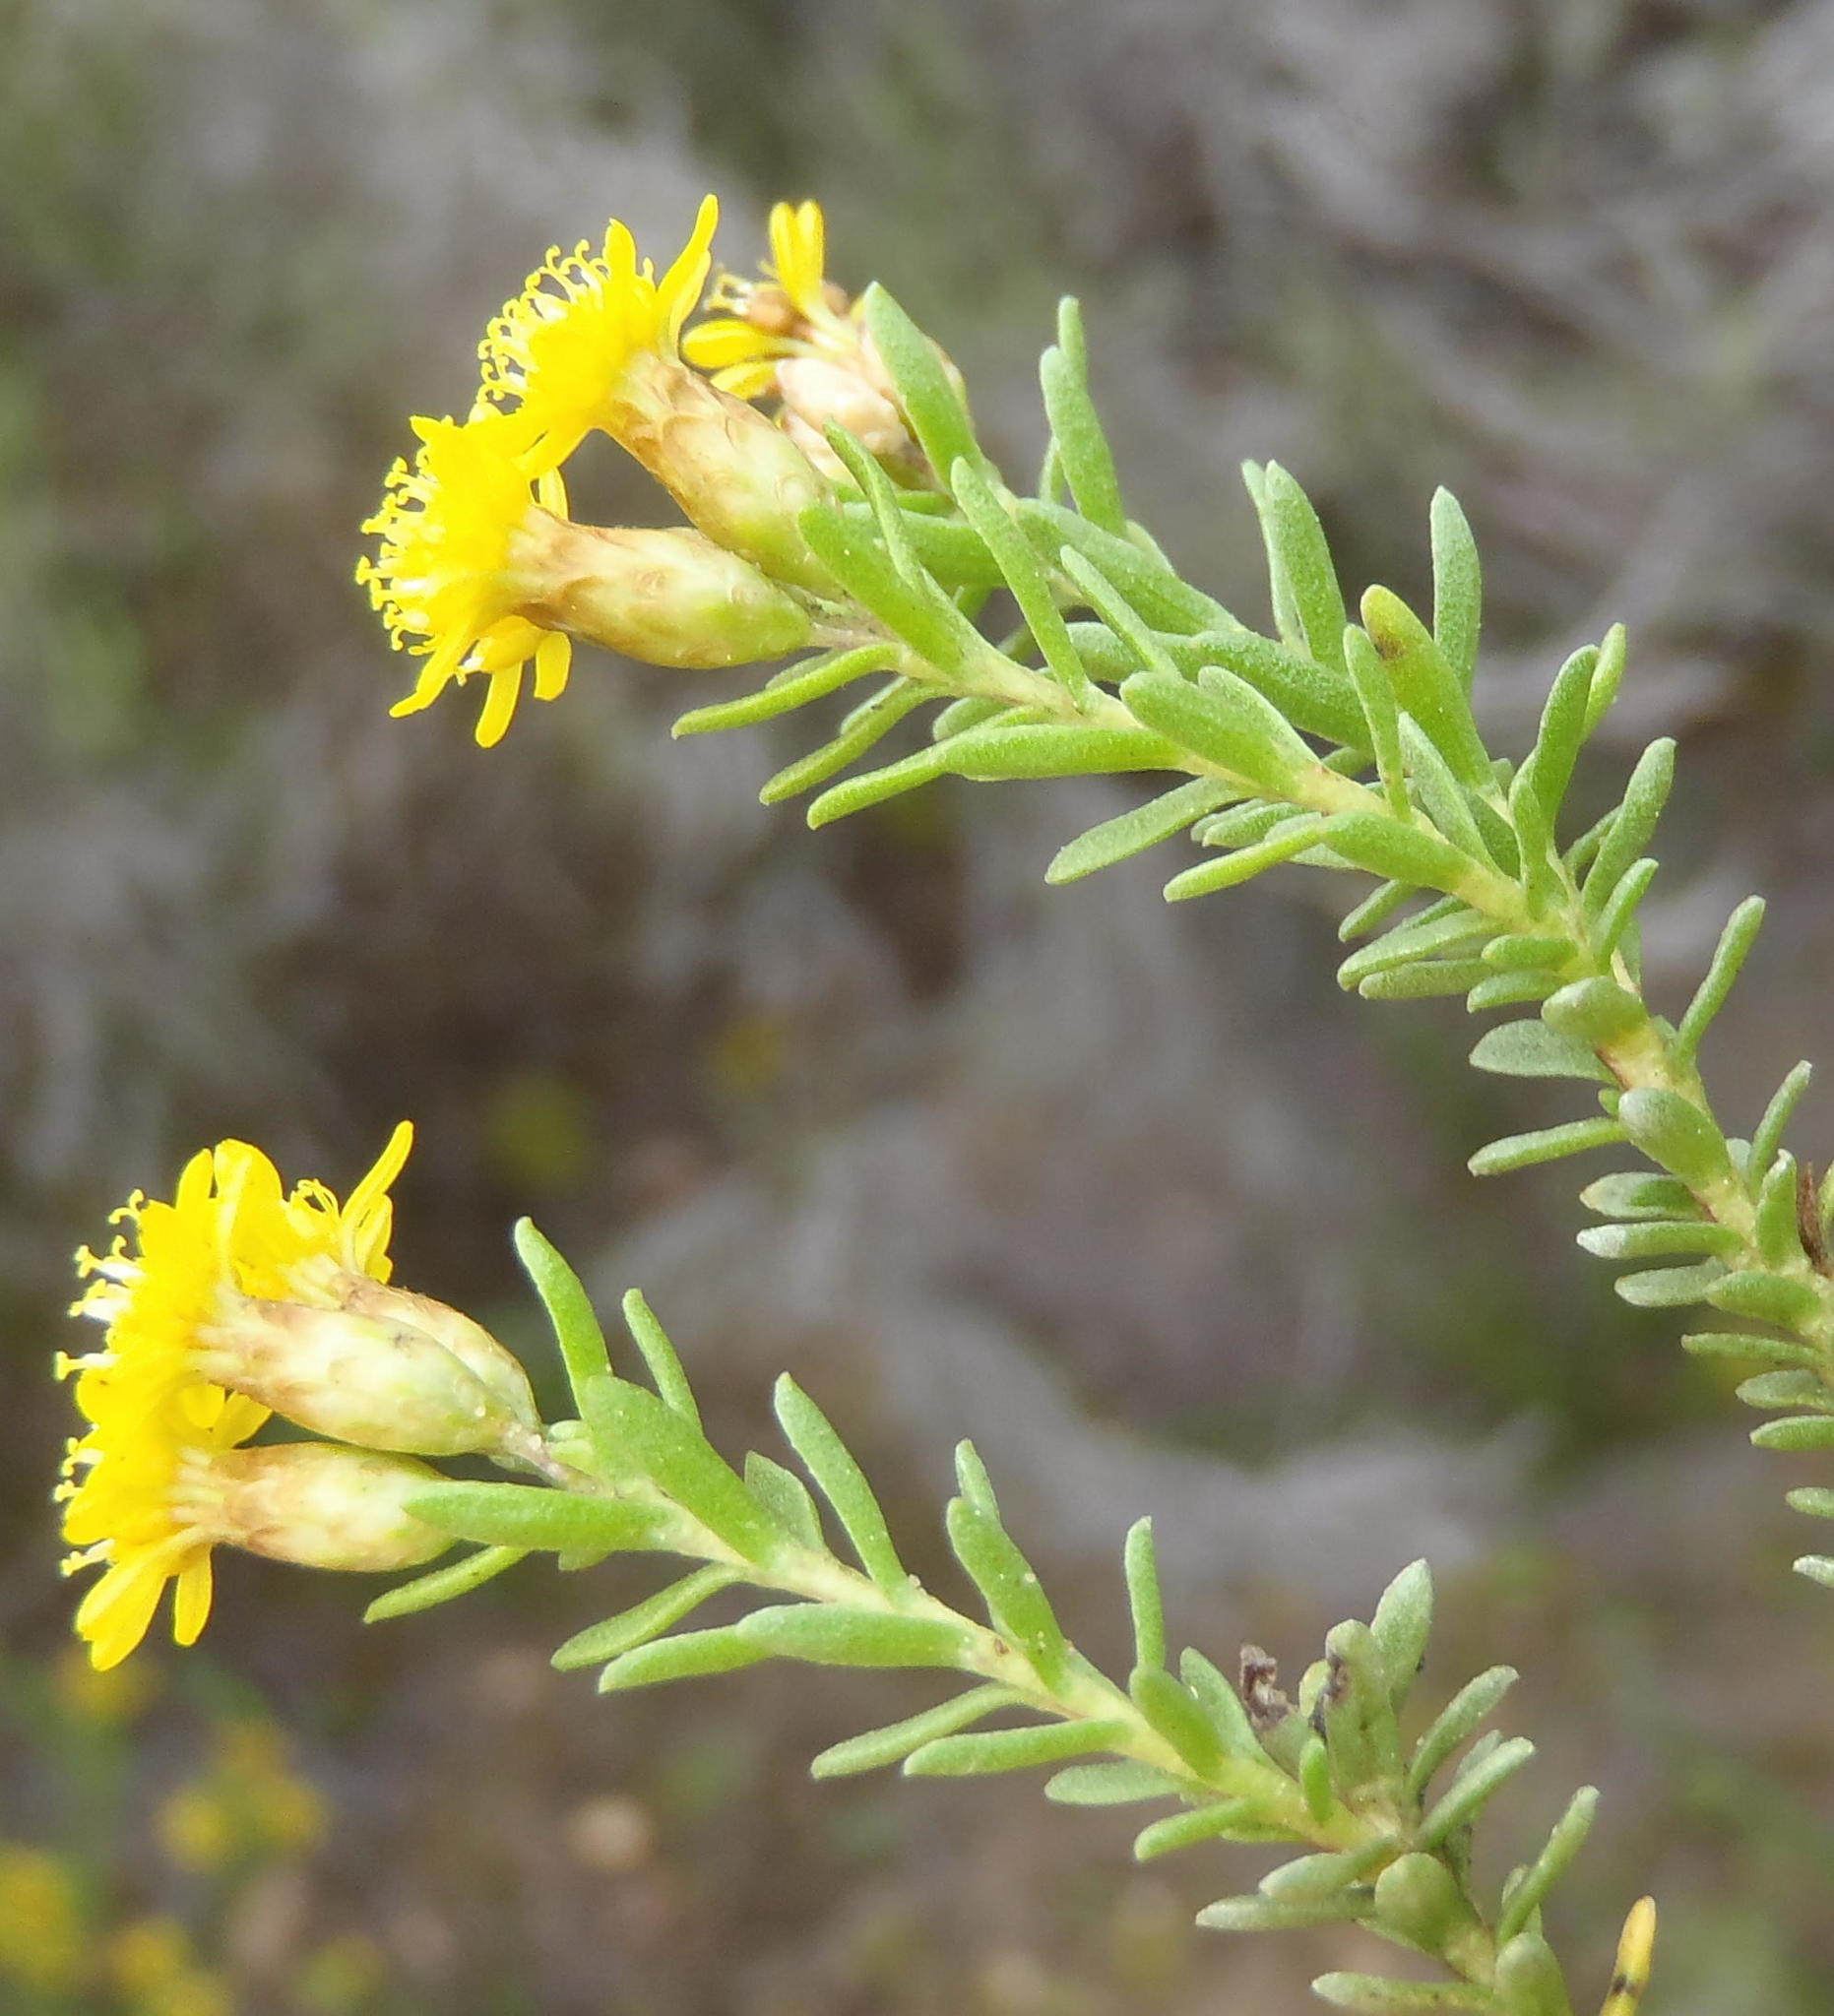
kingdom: Plantae
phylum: Tracheophyta
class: Magnoliopsida
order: Asterales
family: Asteraceae
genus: Oedera
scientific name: Oedera genistifolia
